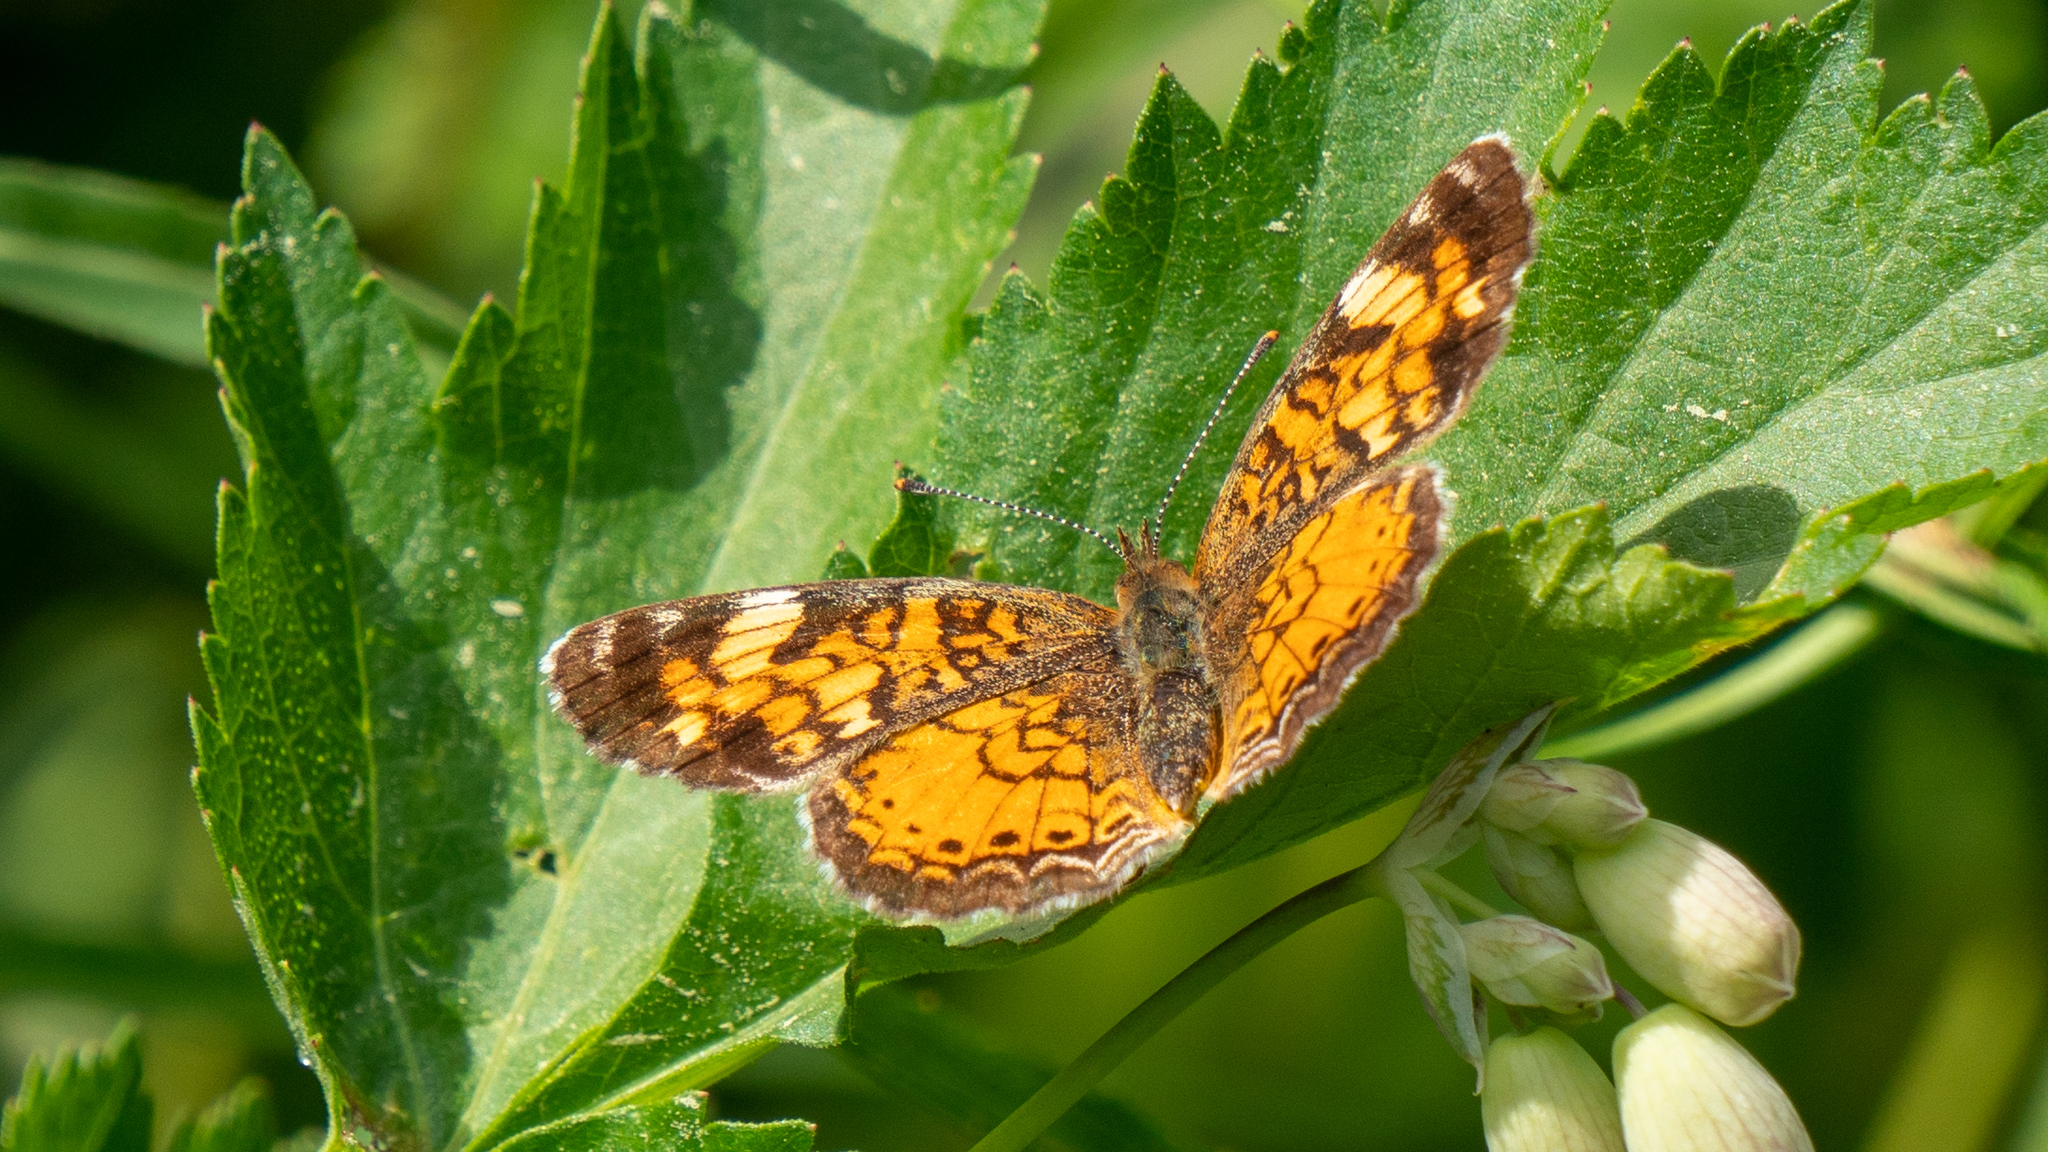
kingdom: Animalia
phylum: Arthropoda
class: Insecta
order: Lepidoptera
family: Nymphalidae
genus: Phyciodes
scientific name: Phyciodes tharos
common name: Pearl crescent
